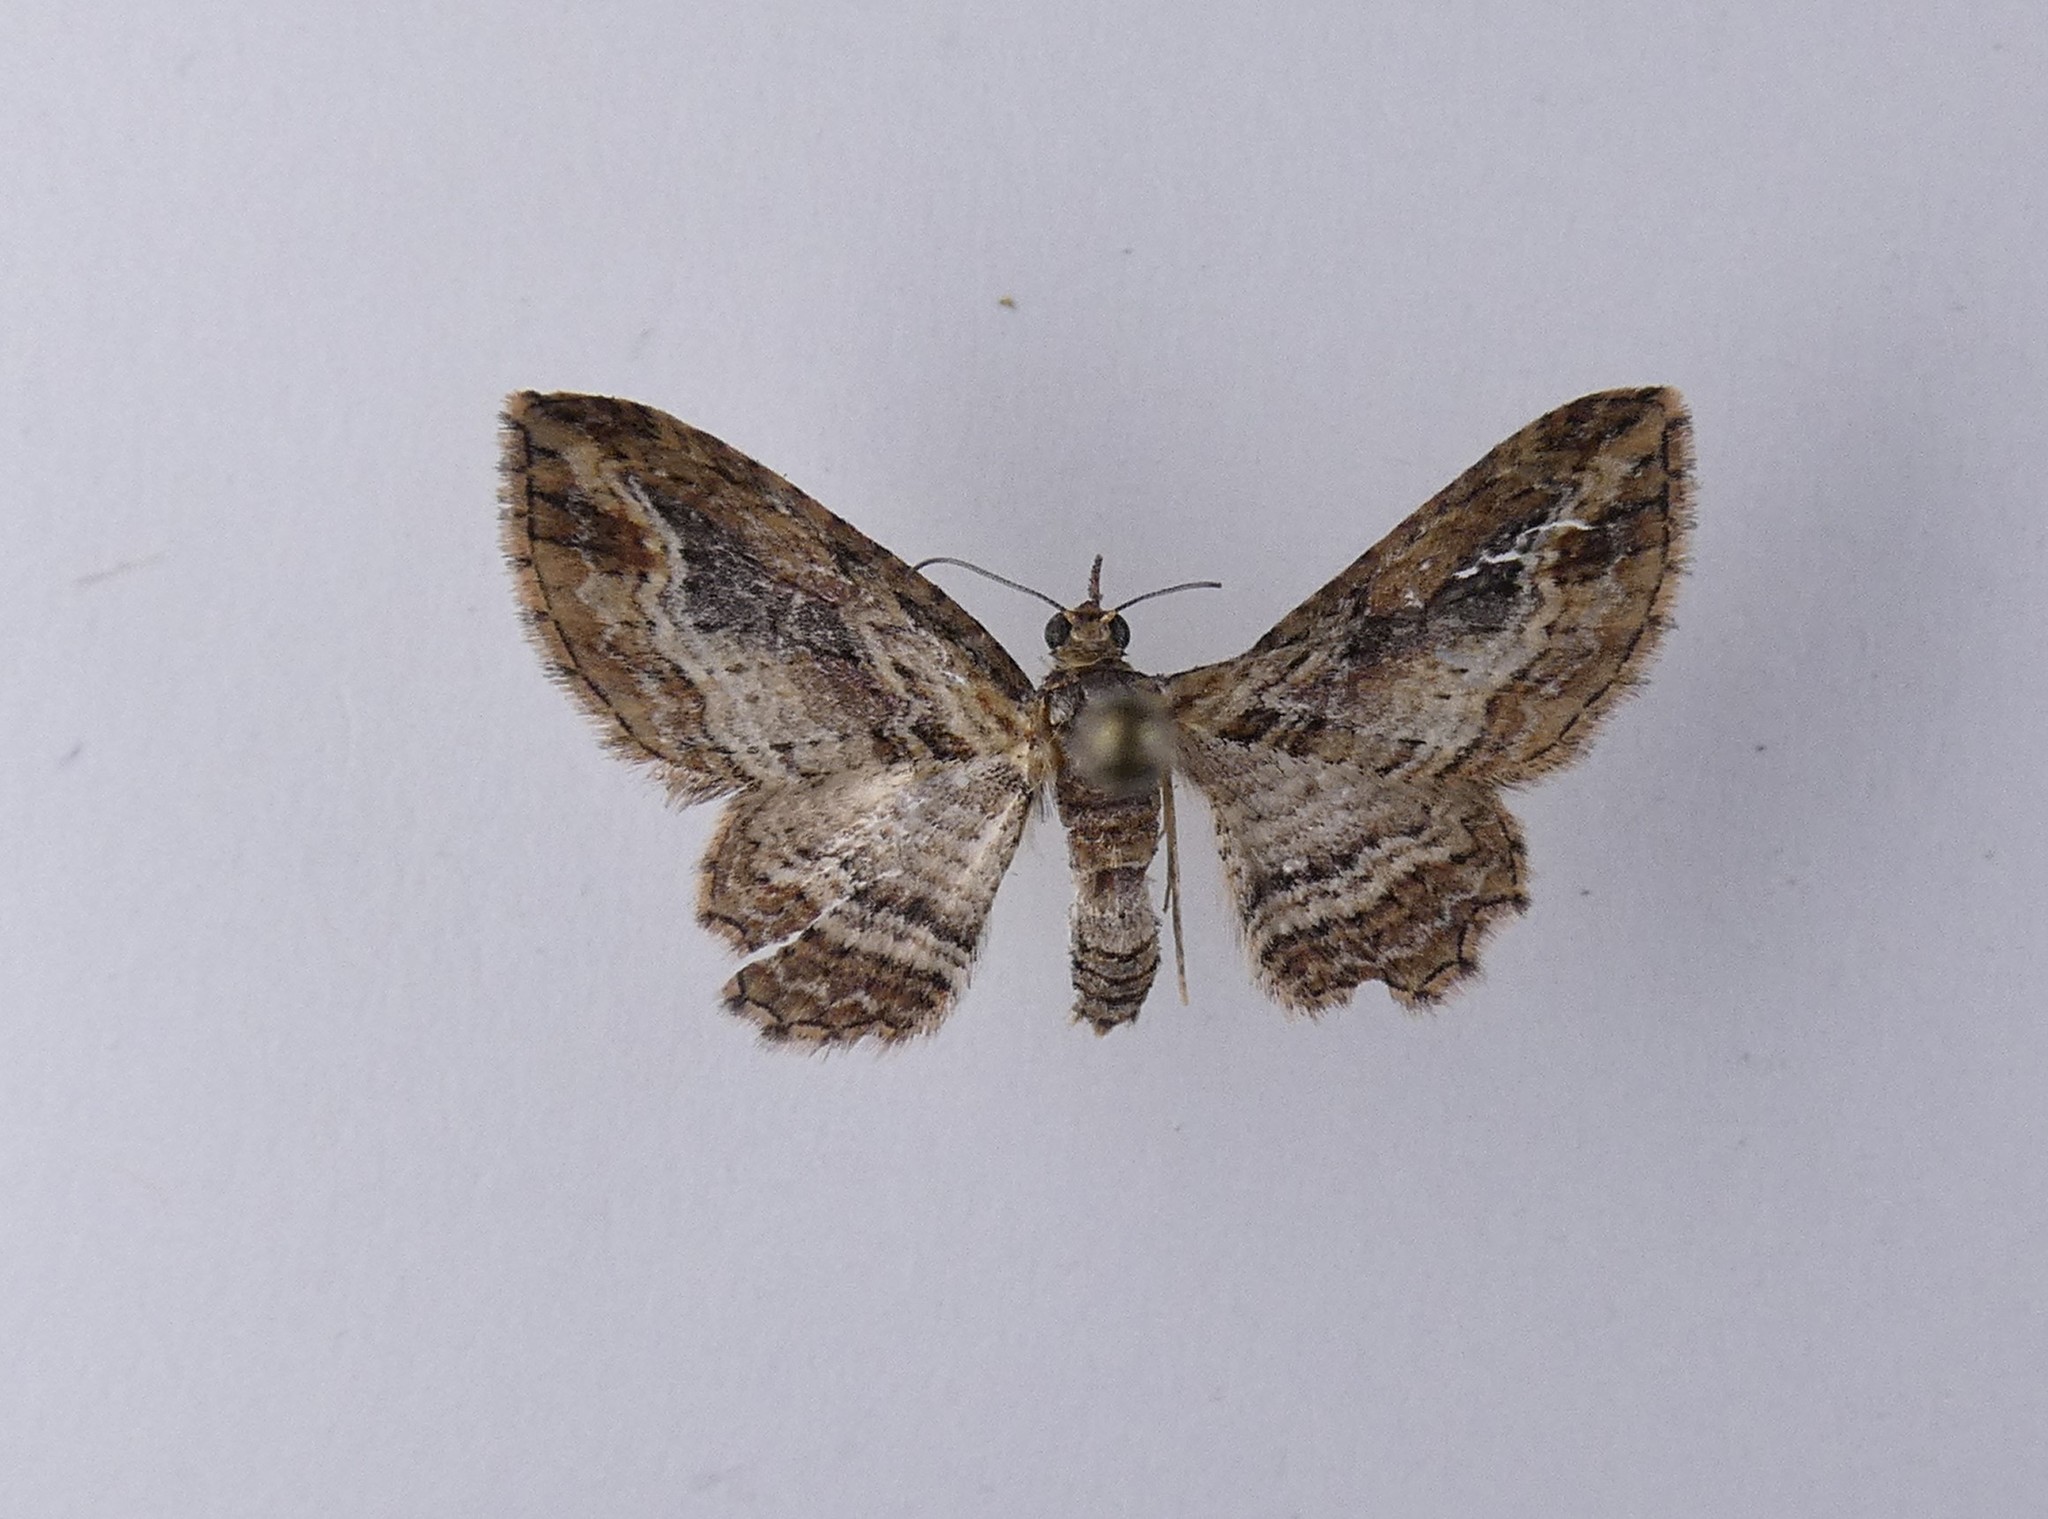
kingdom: Animalia
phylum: Arthropoda
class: Insecta
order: Lepidoptera
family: Geometridae
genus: Chloroclystis
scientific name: Chloroclystis filata
